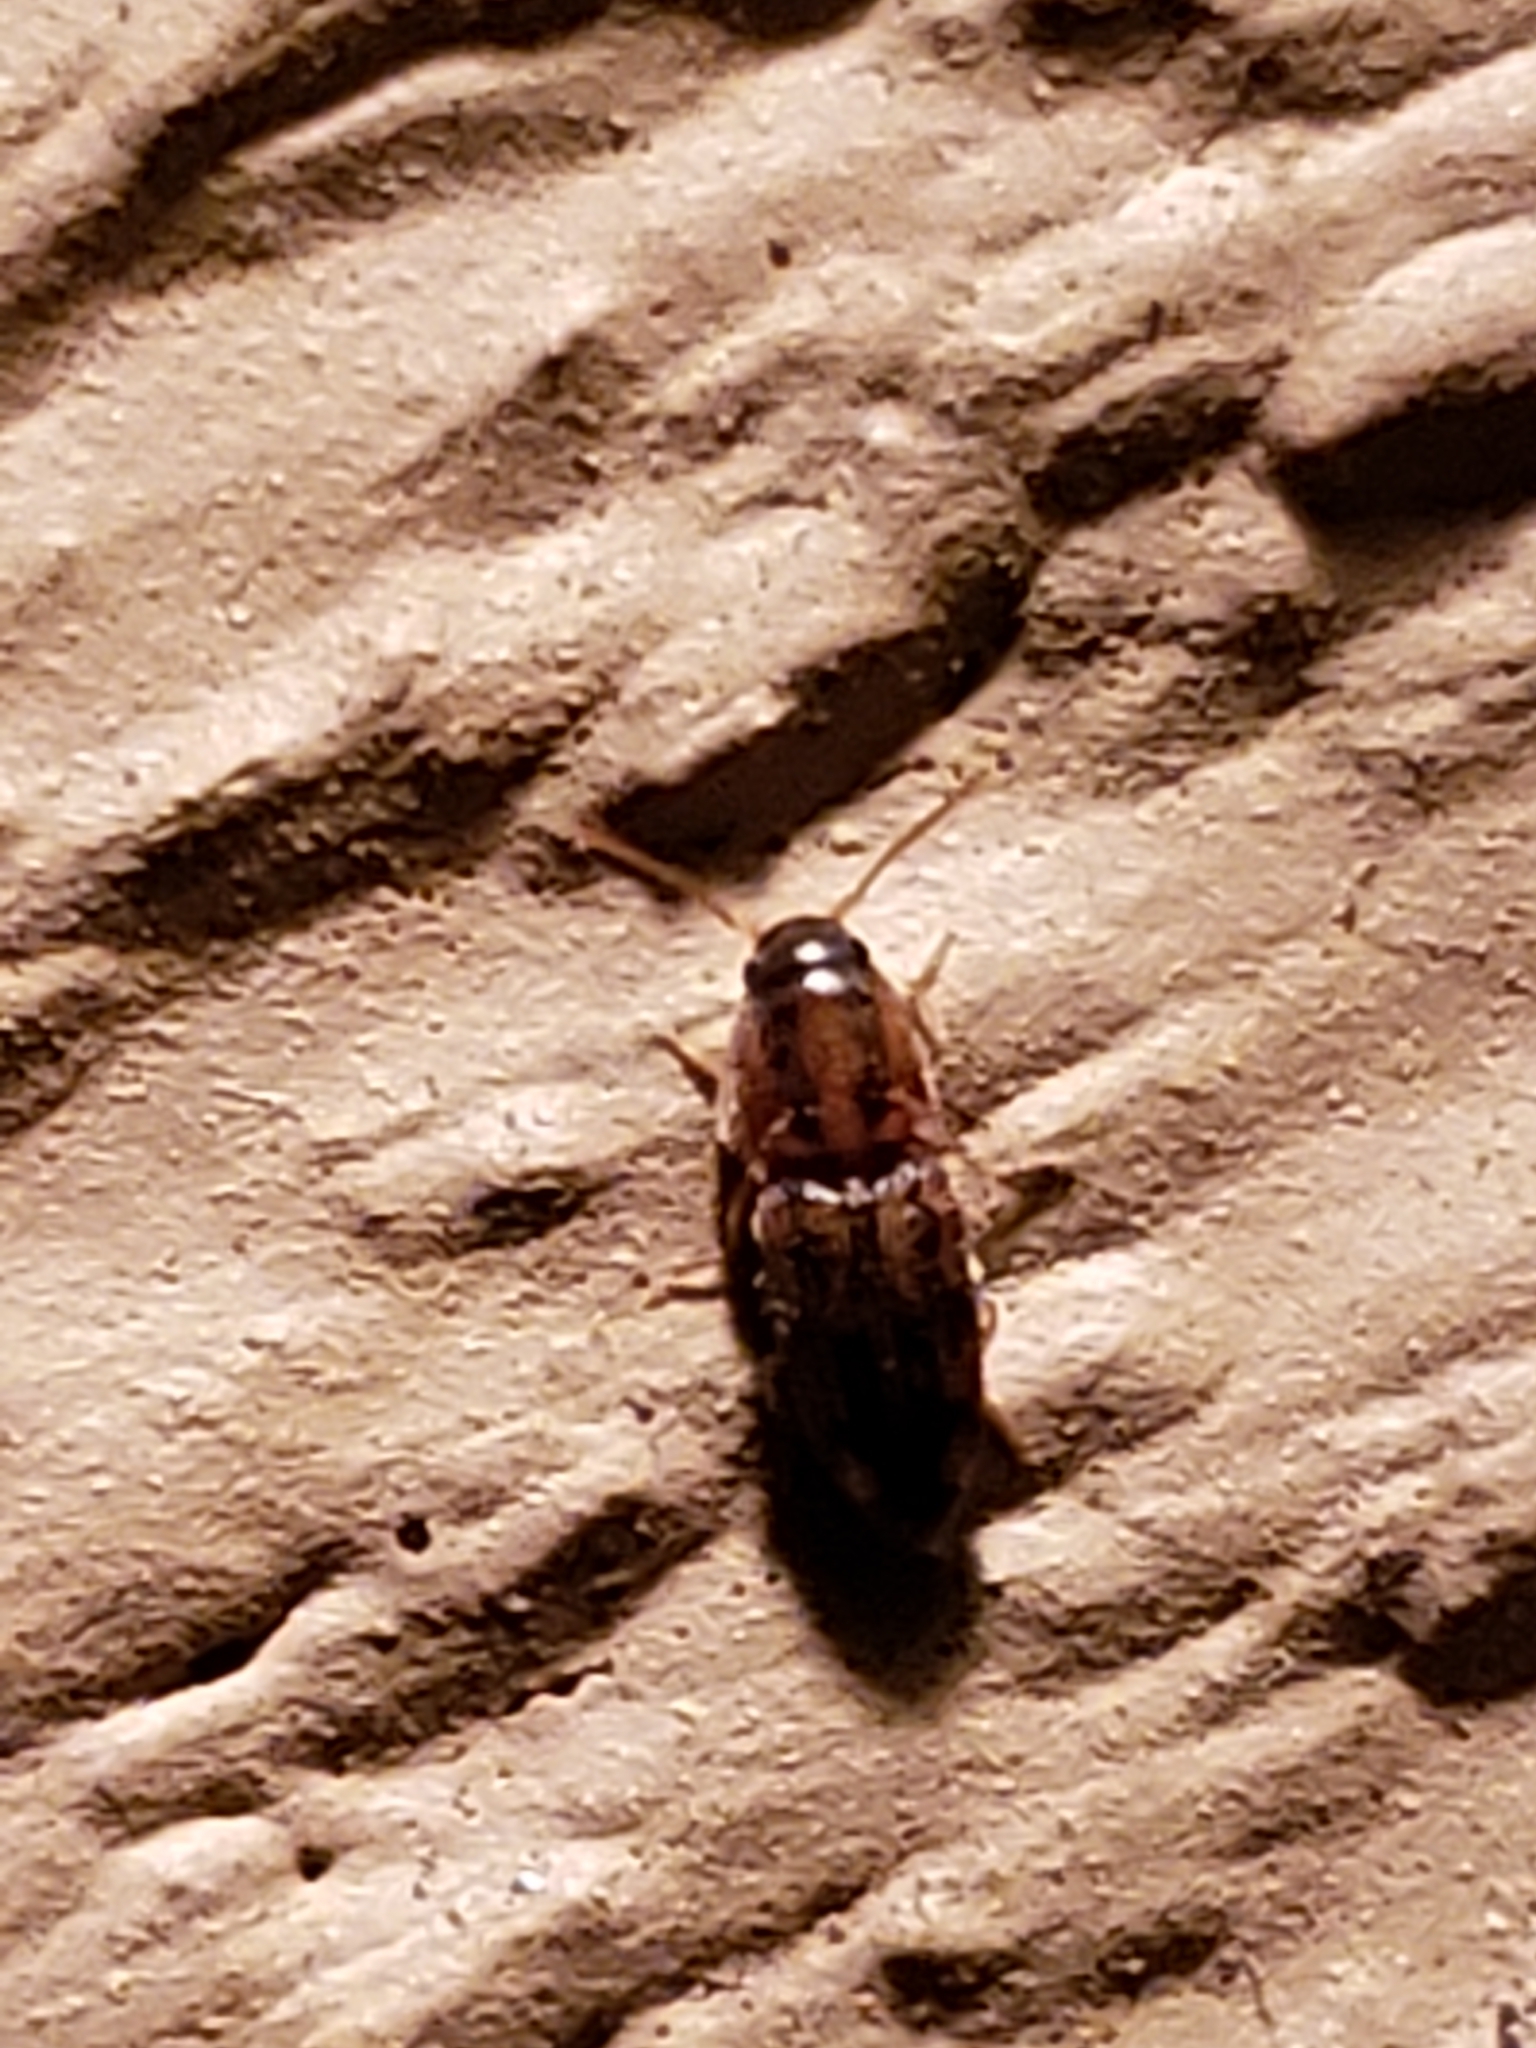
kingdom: Animalia
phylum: Arthropoda
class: Insecta
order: Coleoptera
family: Elateridae
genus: Monocrepidius
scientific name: Monocrepidius bellus
